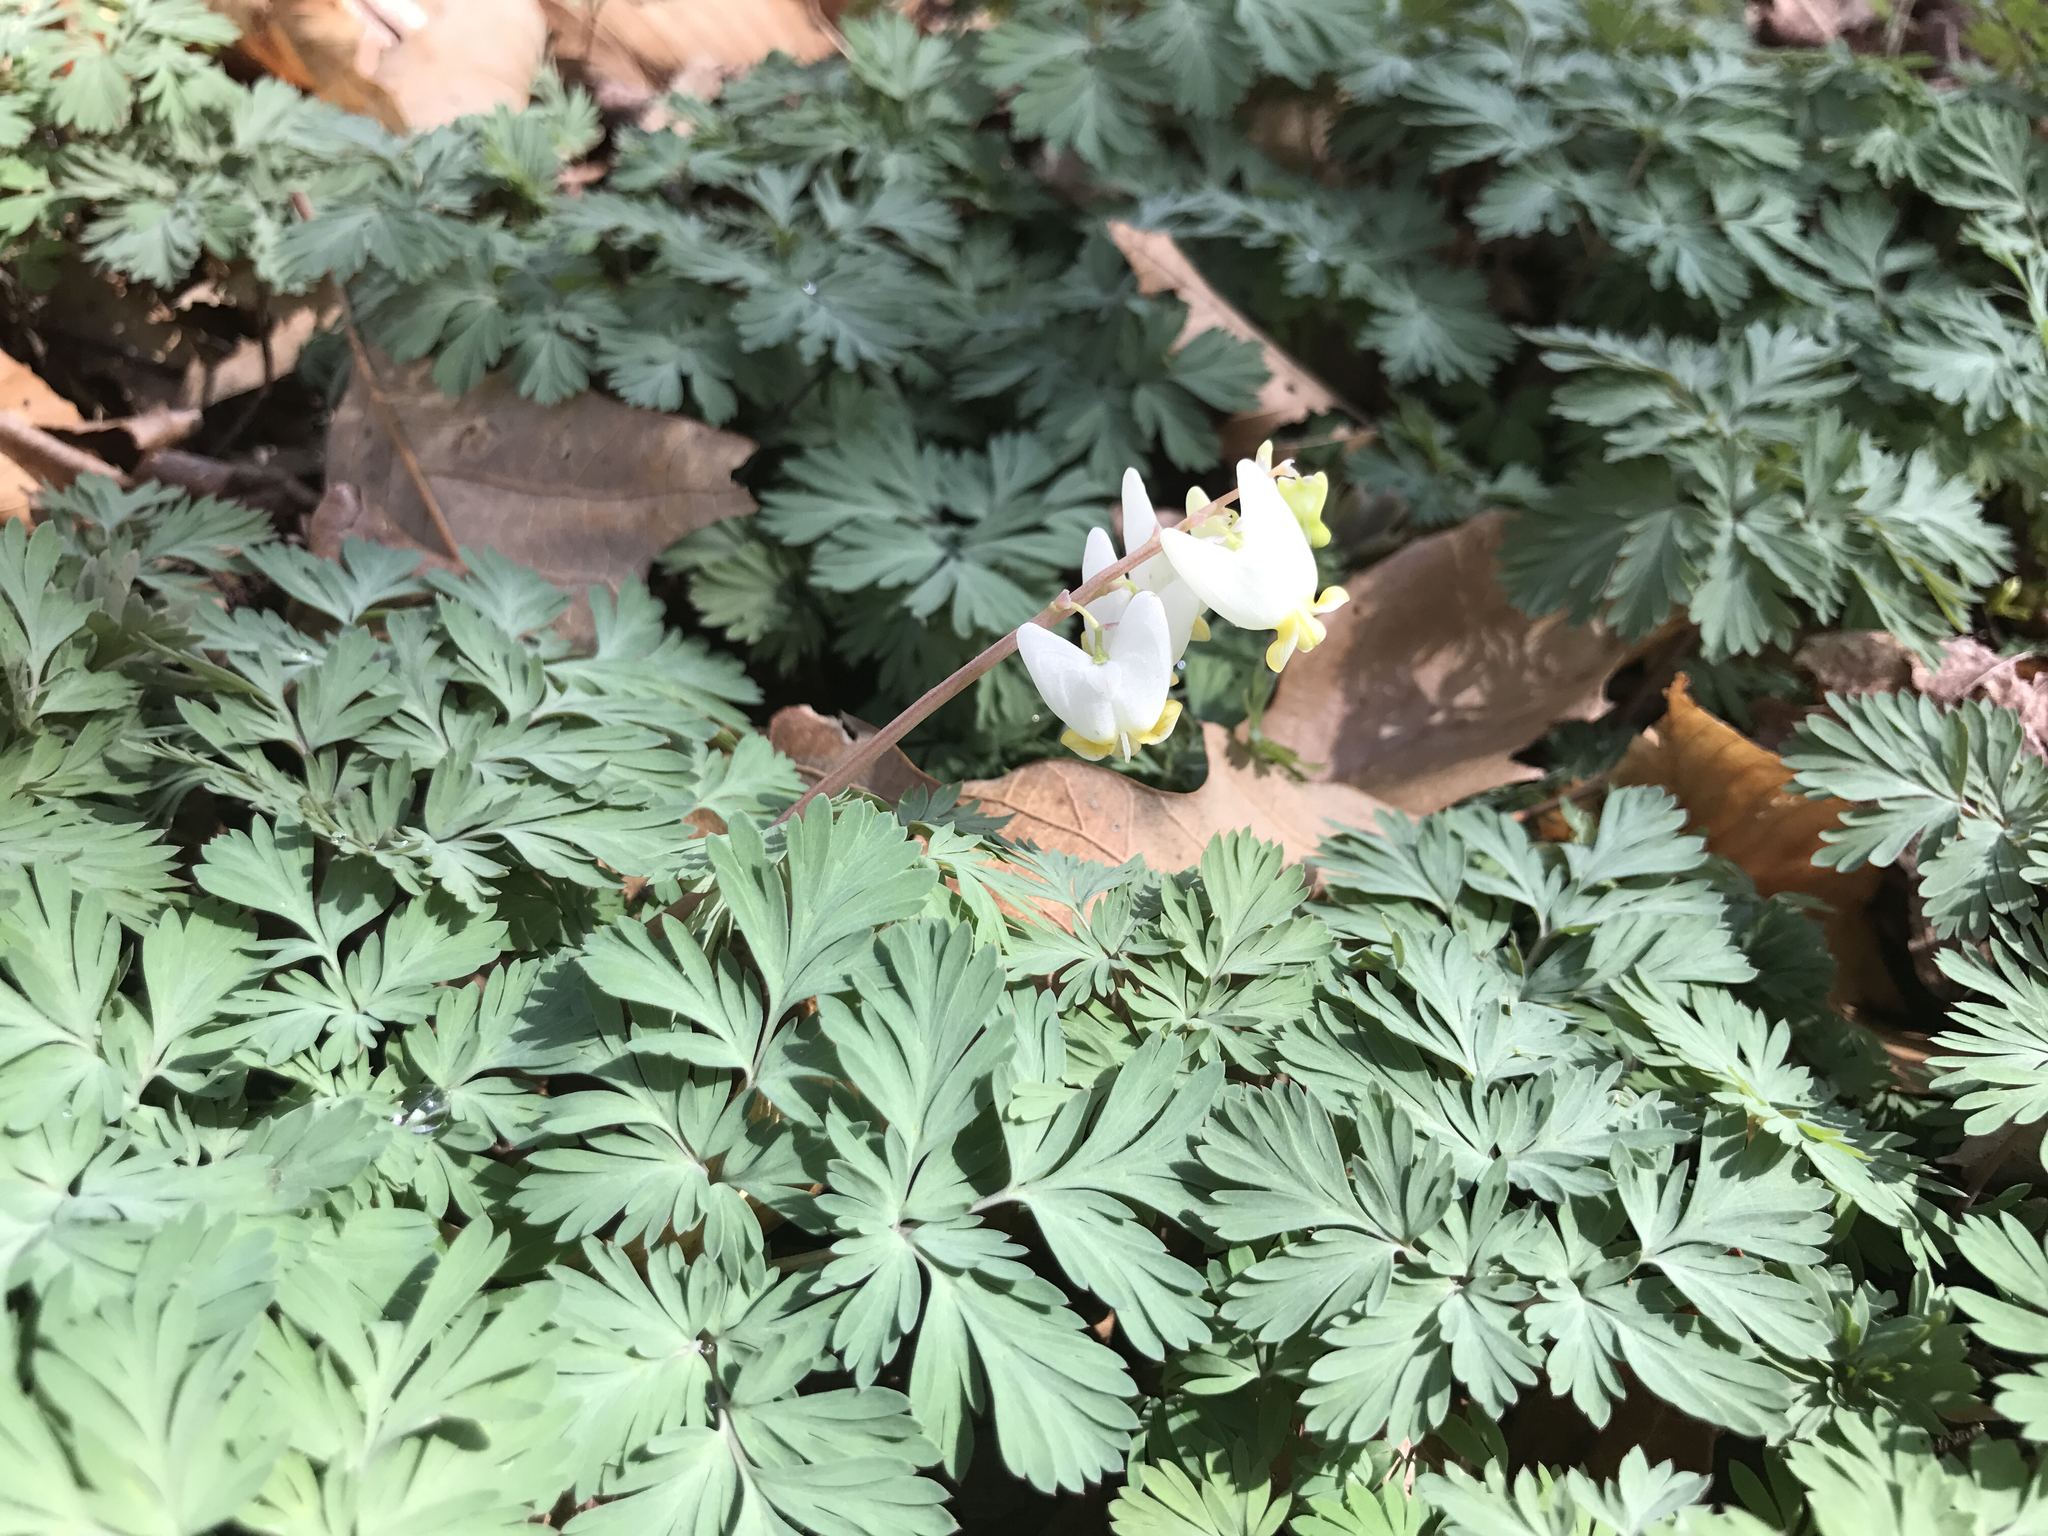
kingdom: Plantae
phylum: Tracheophyta
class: Magnoliopsida
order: Ranunculales
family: Papaveraceae
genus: Dicentra
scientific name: Dicentra cucullaria
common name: Dutchman's breeches
